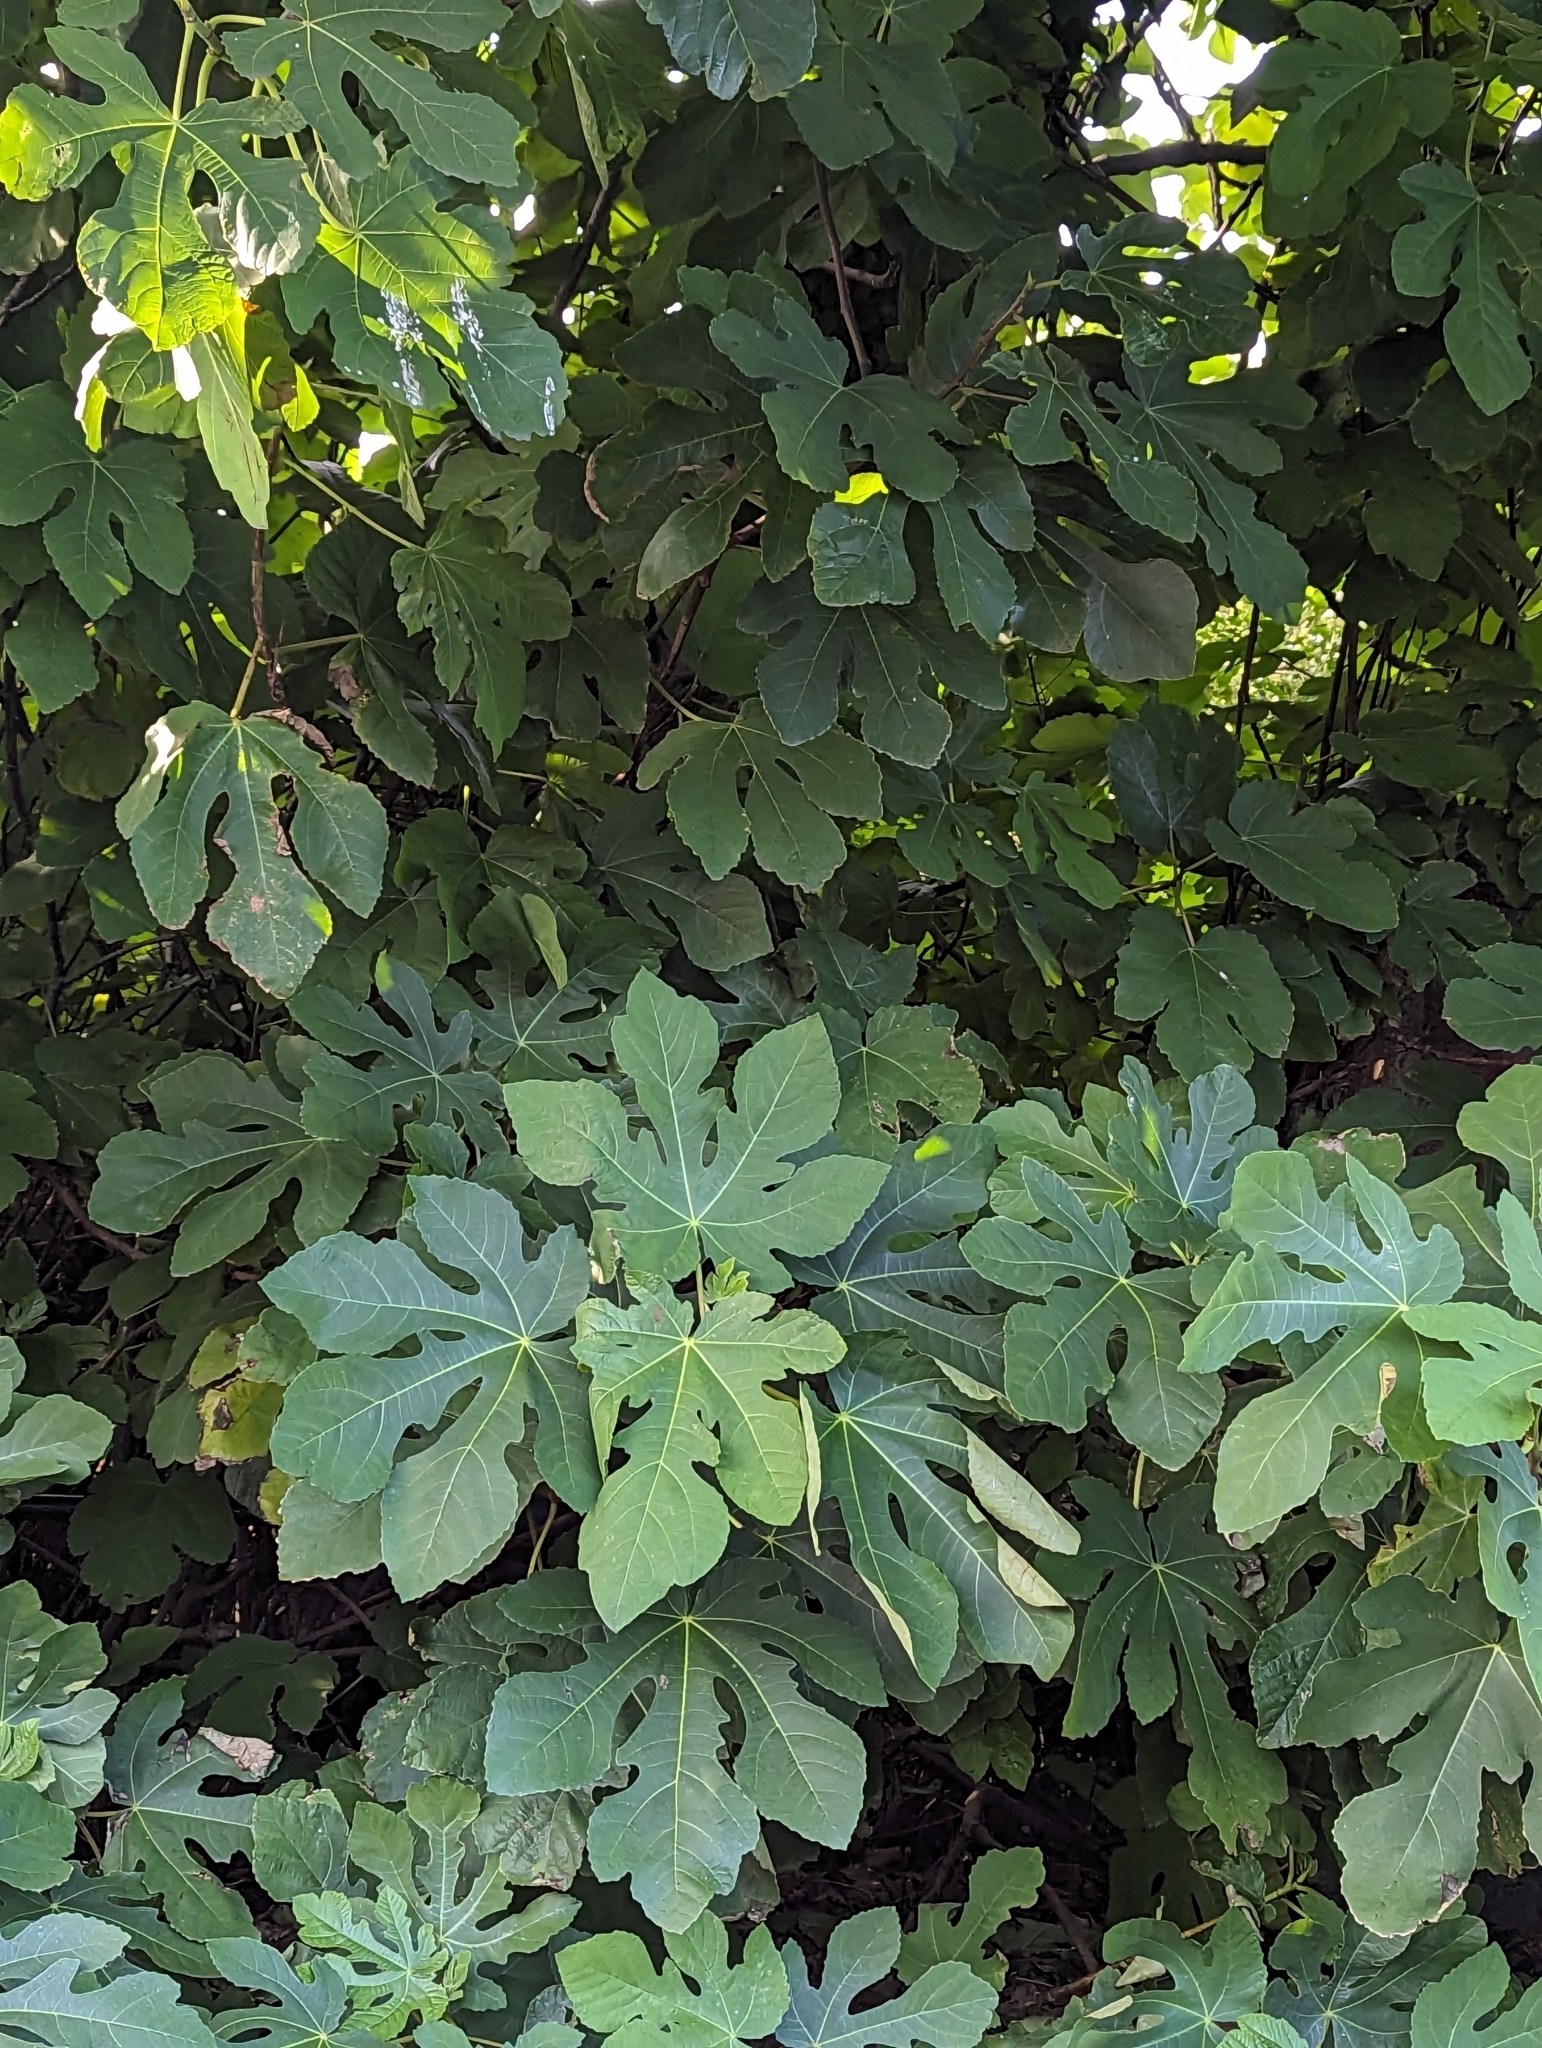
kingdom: Plantae
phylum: Tracheophyta
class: Magnoliopsida
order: Rosales
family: Moraceae
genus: Ficus
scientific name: Ficus carica
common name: Fig
